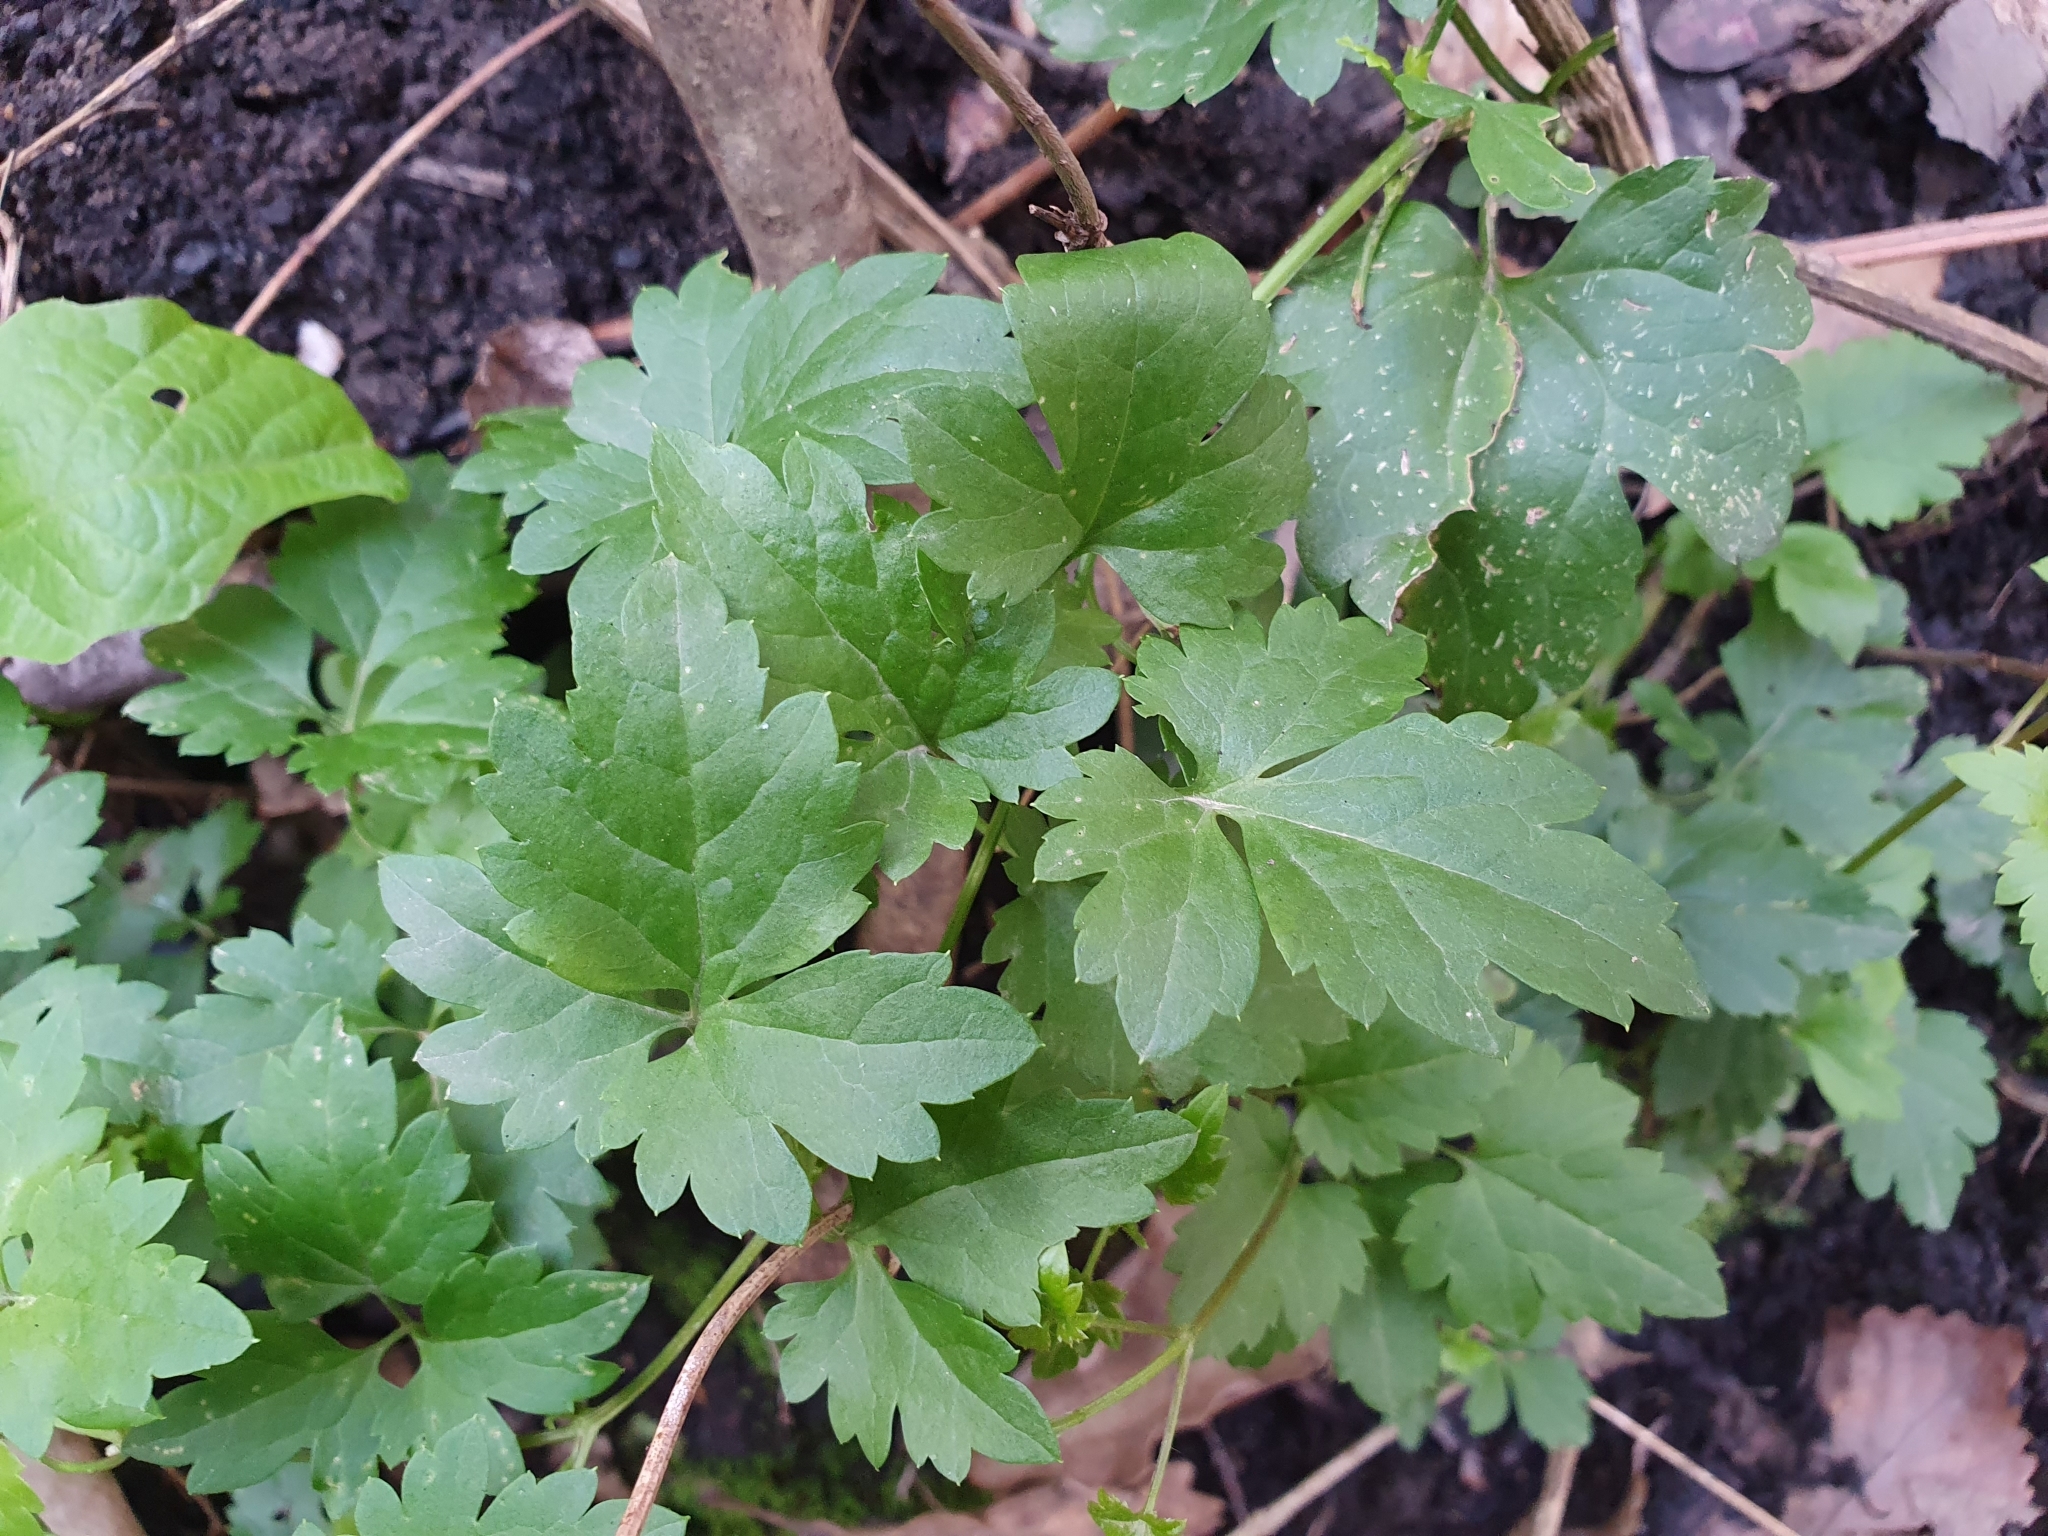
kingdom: Plantae
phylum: Tracheophyta
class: Magnoliopsida
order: Ranunculales
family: Ranunculaceae
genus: Clematis
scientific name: Clematis cirrhosa
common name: Early virgin's-bower
